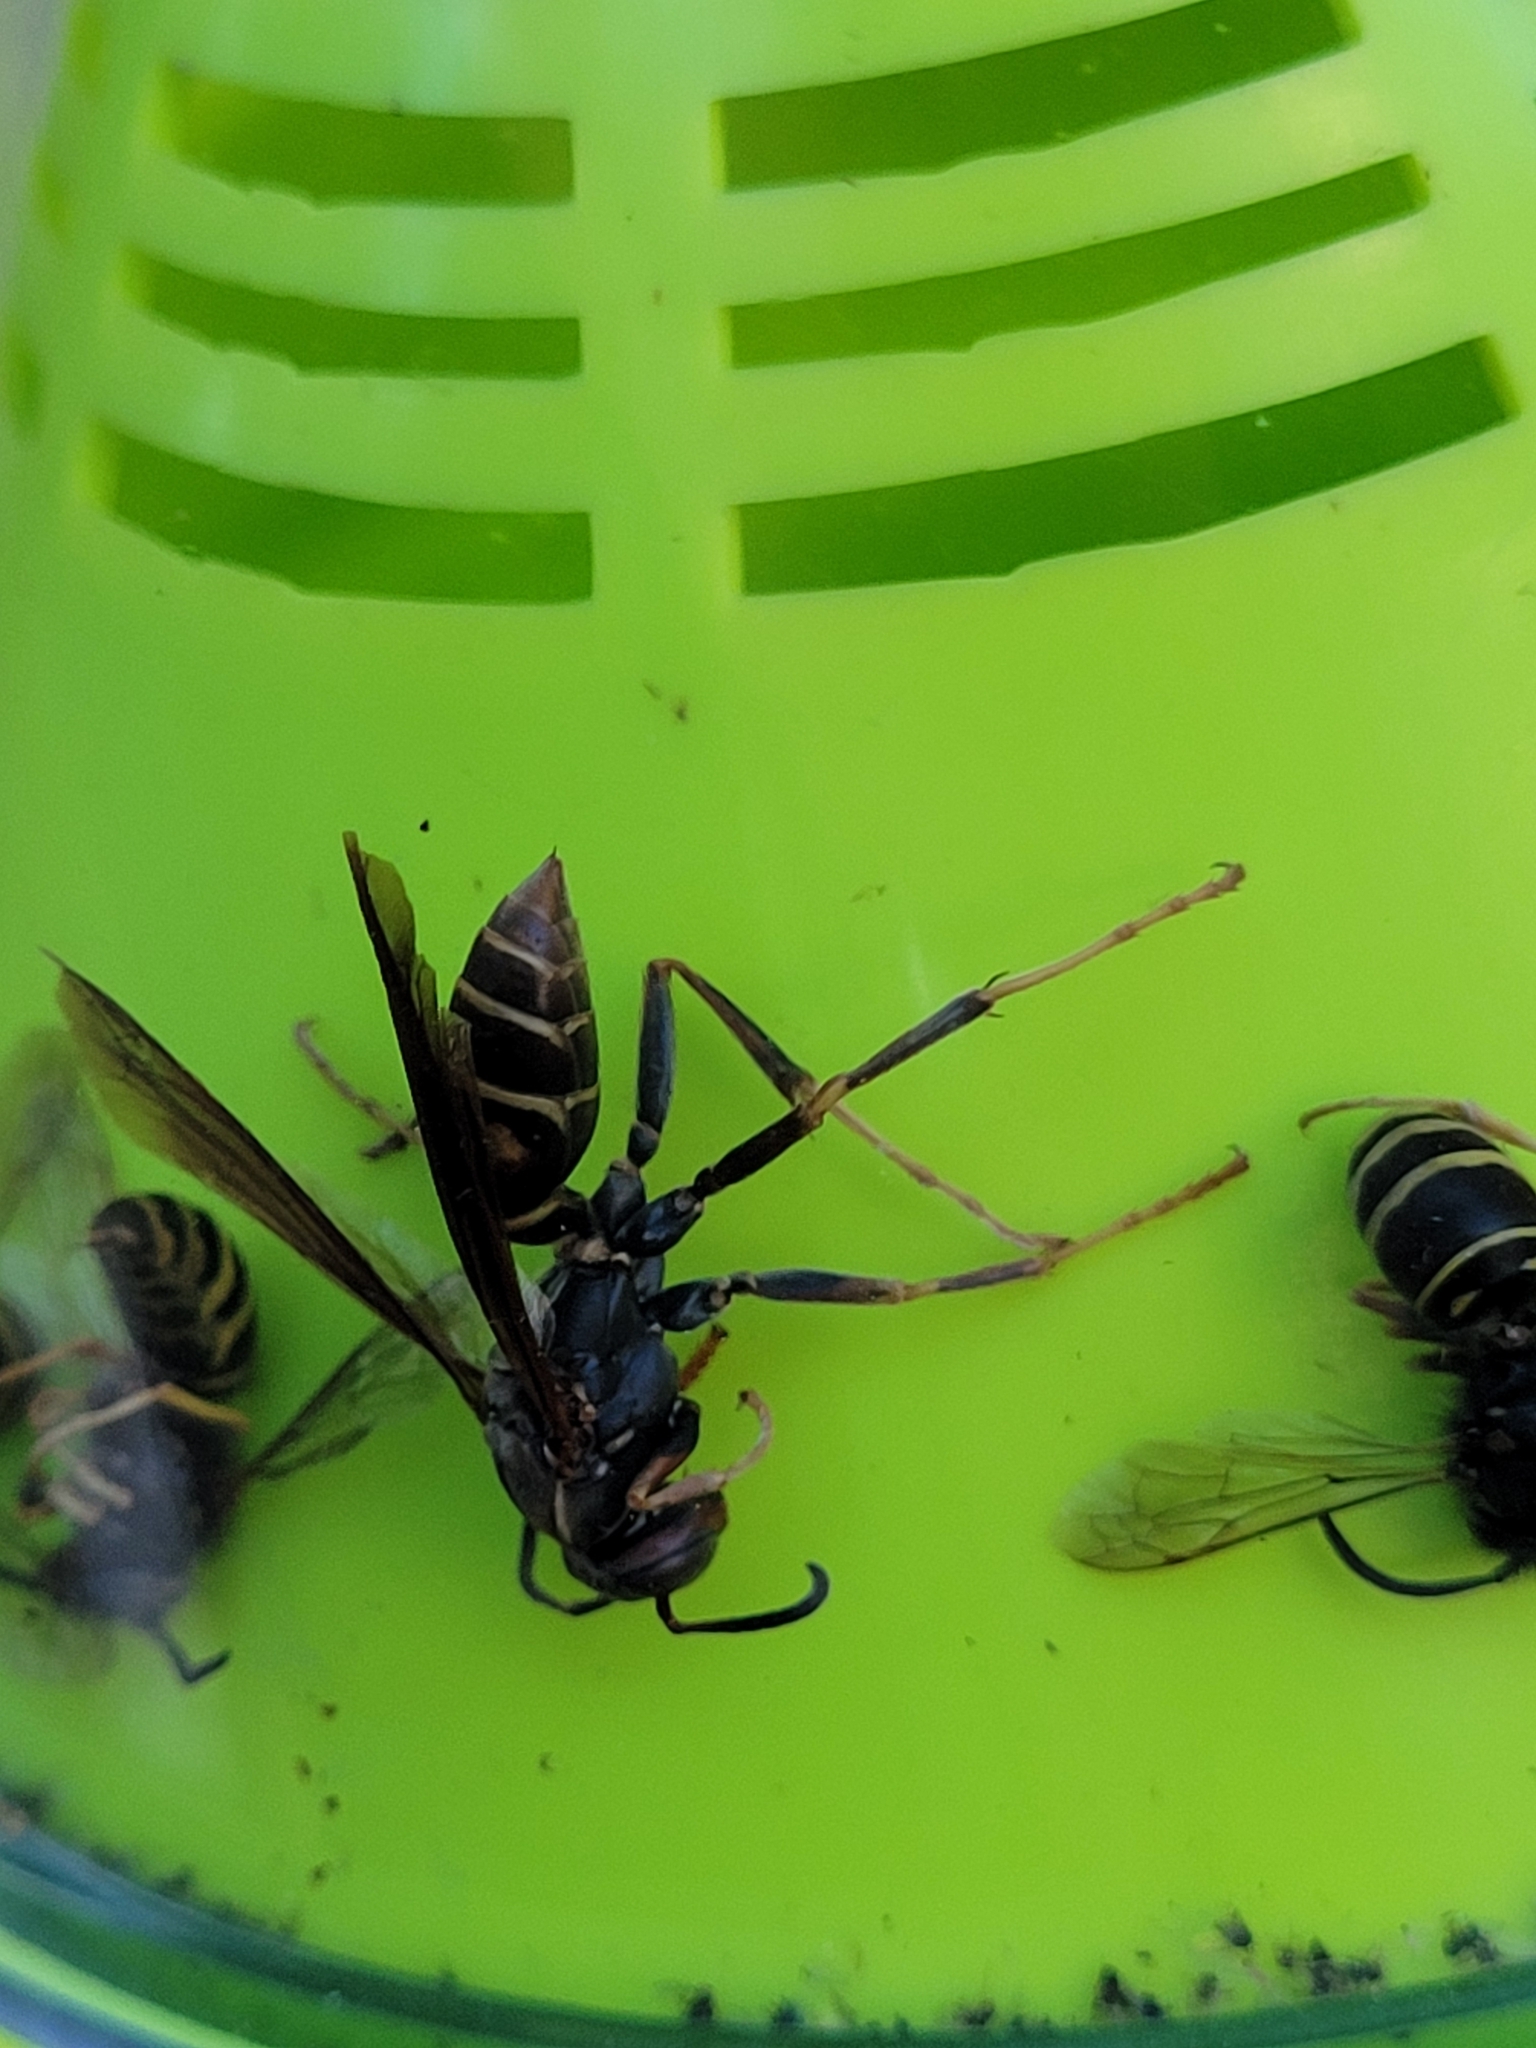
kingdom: Animalia
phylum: Arthropoda
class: Insecta
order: Hymenoptera
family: Eumenidae
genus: Polistes
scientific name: Polistes fuscatus
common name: Dark paper wasp
